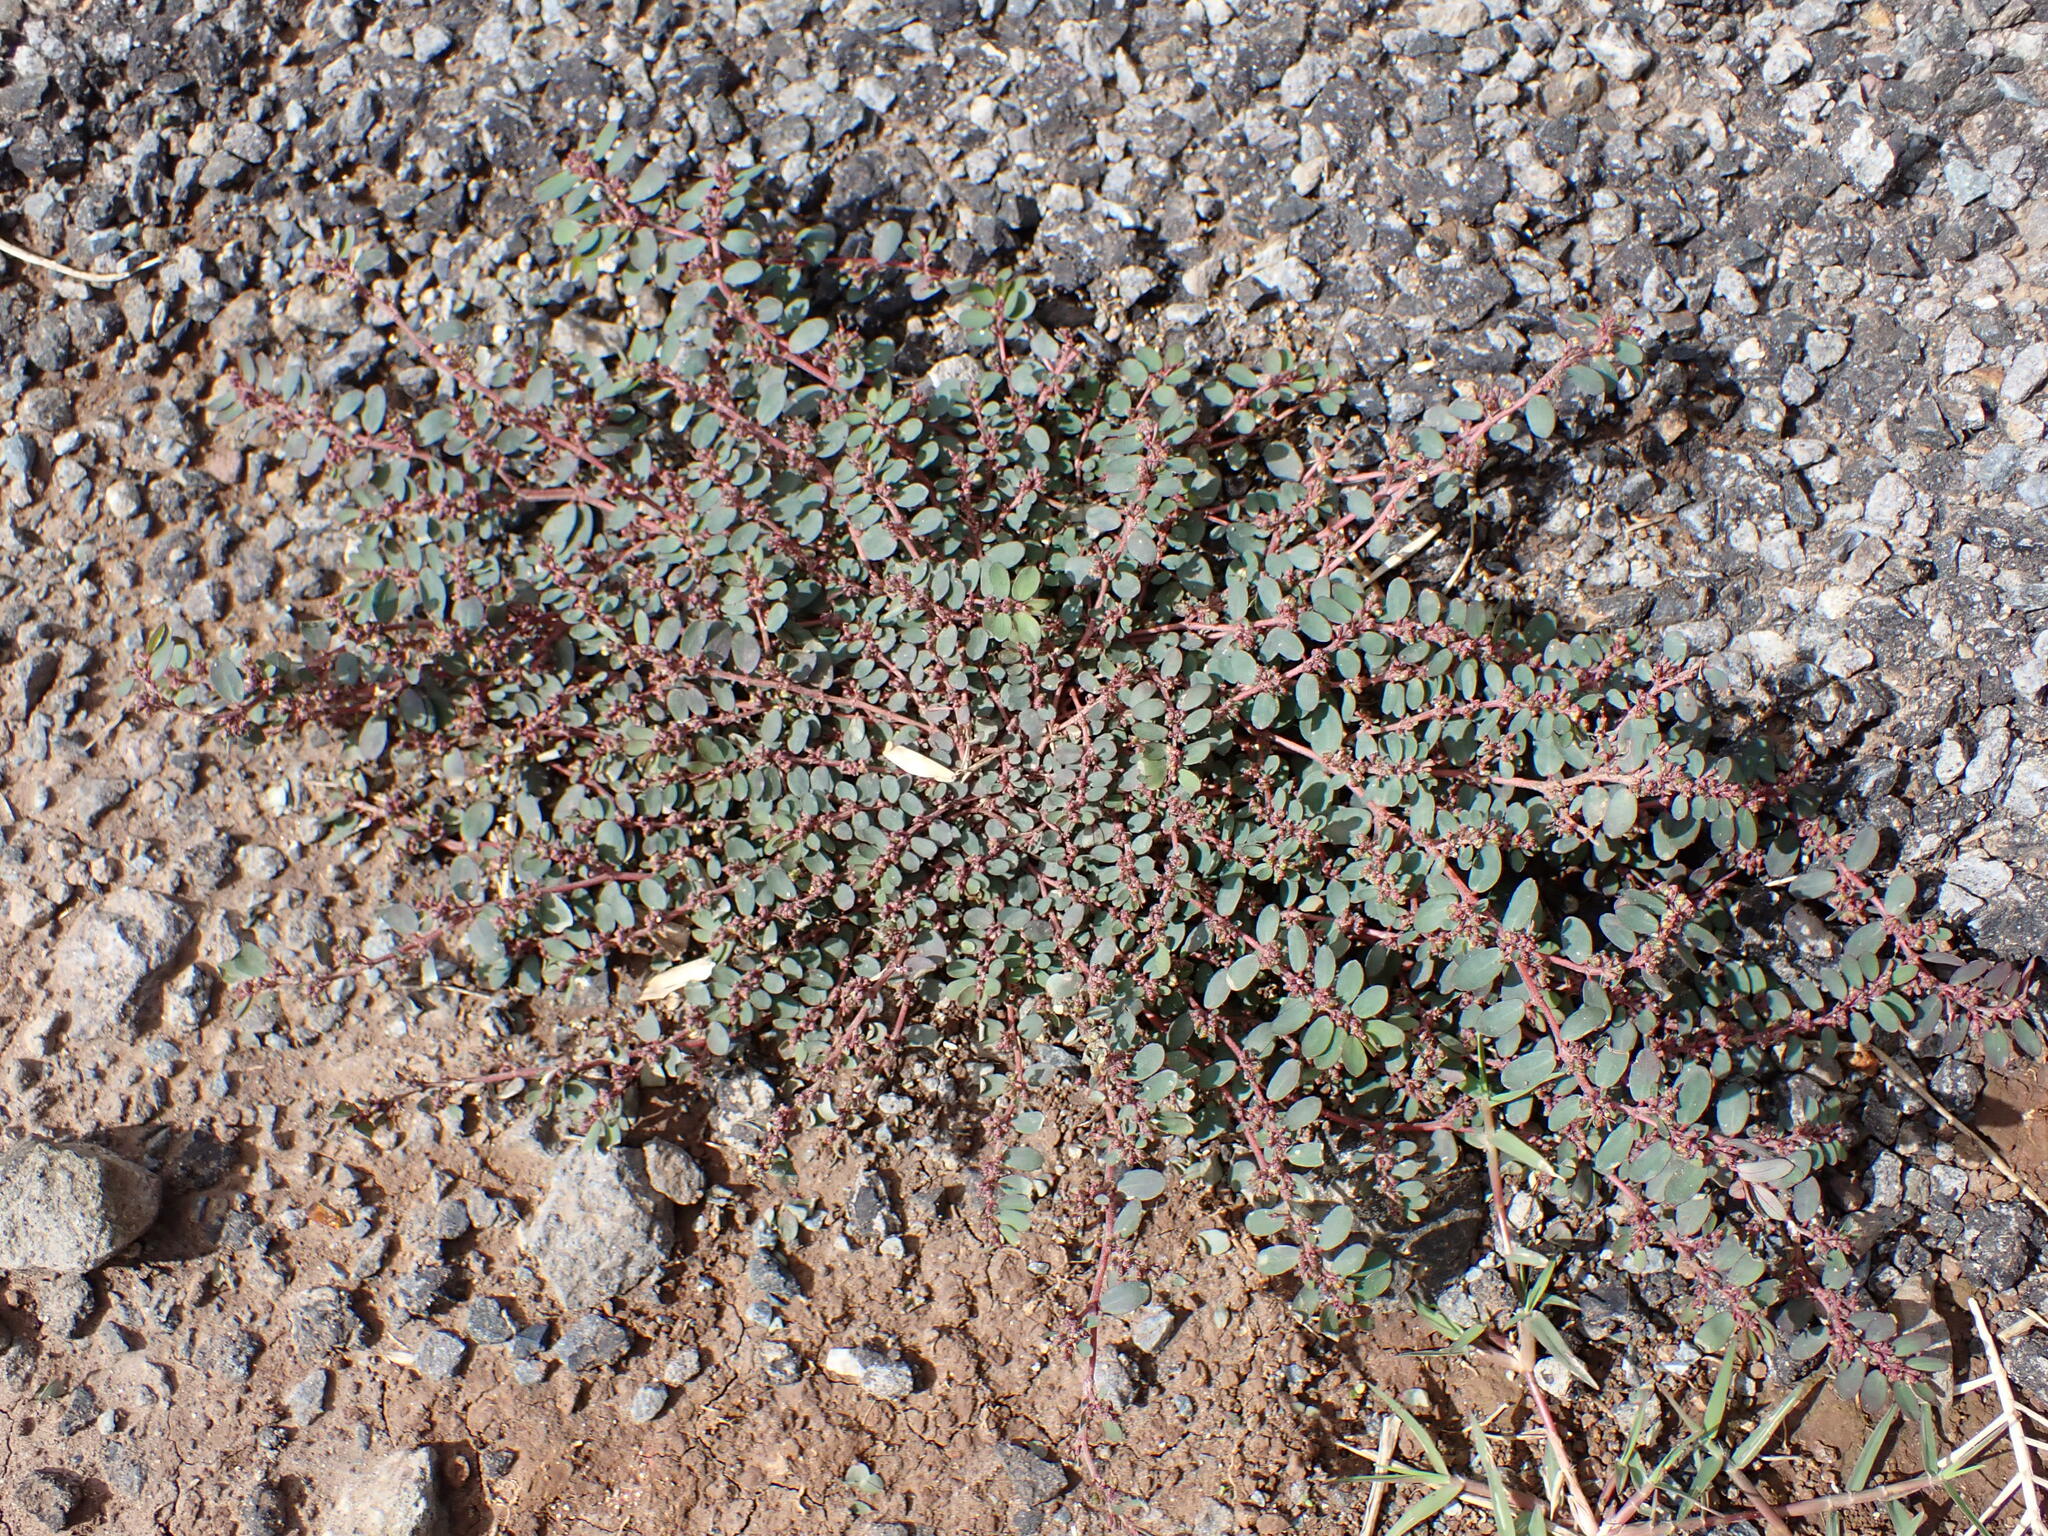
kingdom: Plantae
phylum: Tracheophyta
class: Magnoliopsida
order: Malpighiales
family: Euphorbiaceae
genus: Euphorbia
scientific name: Euphorbia prostrata
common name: Prostrate sandmat
